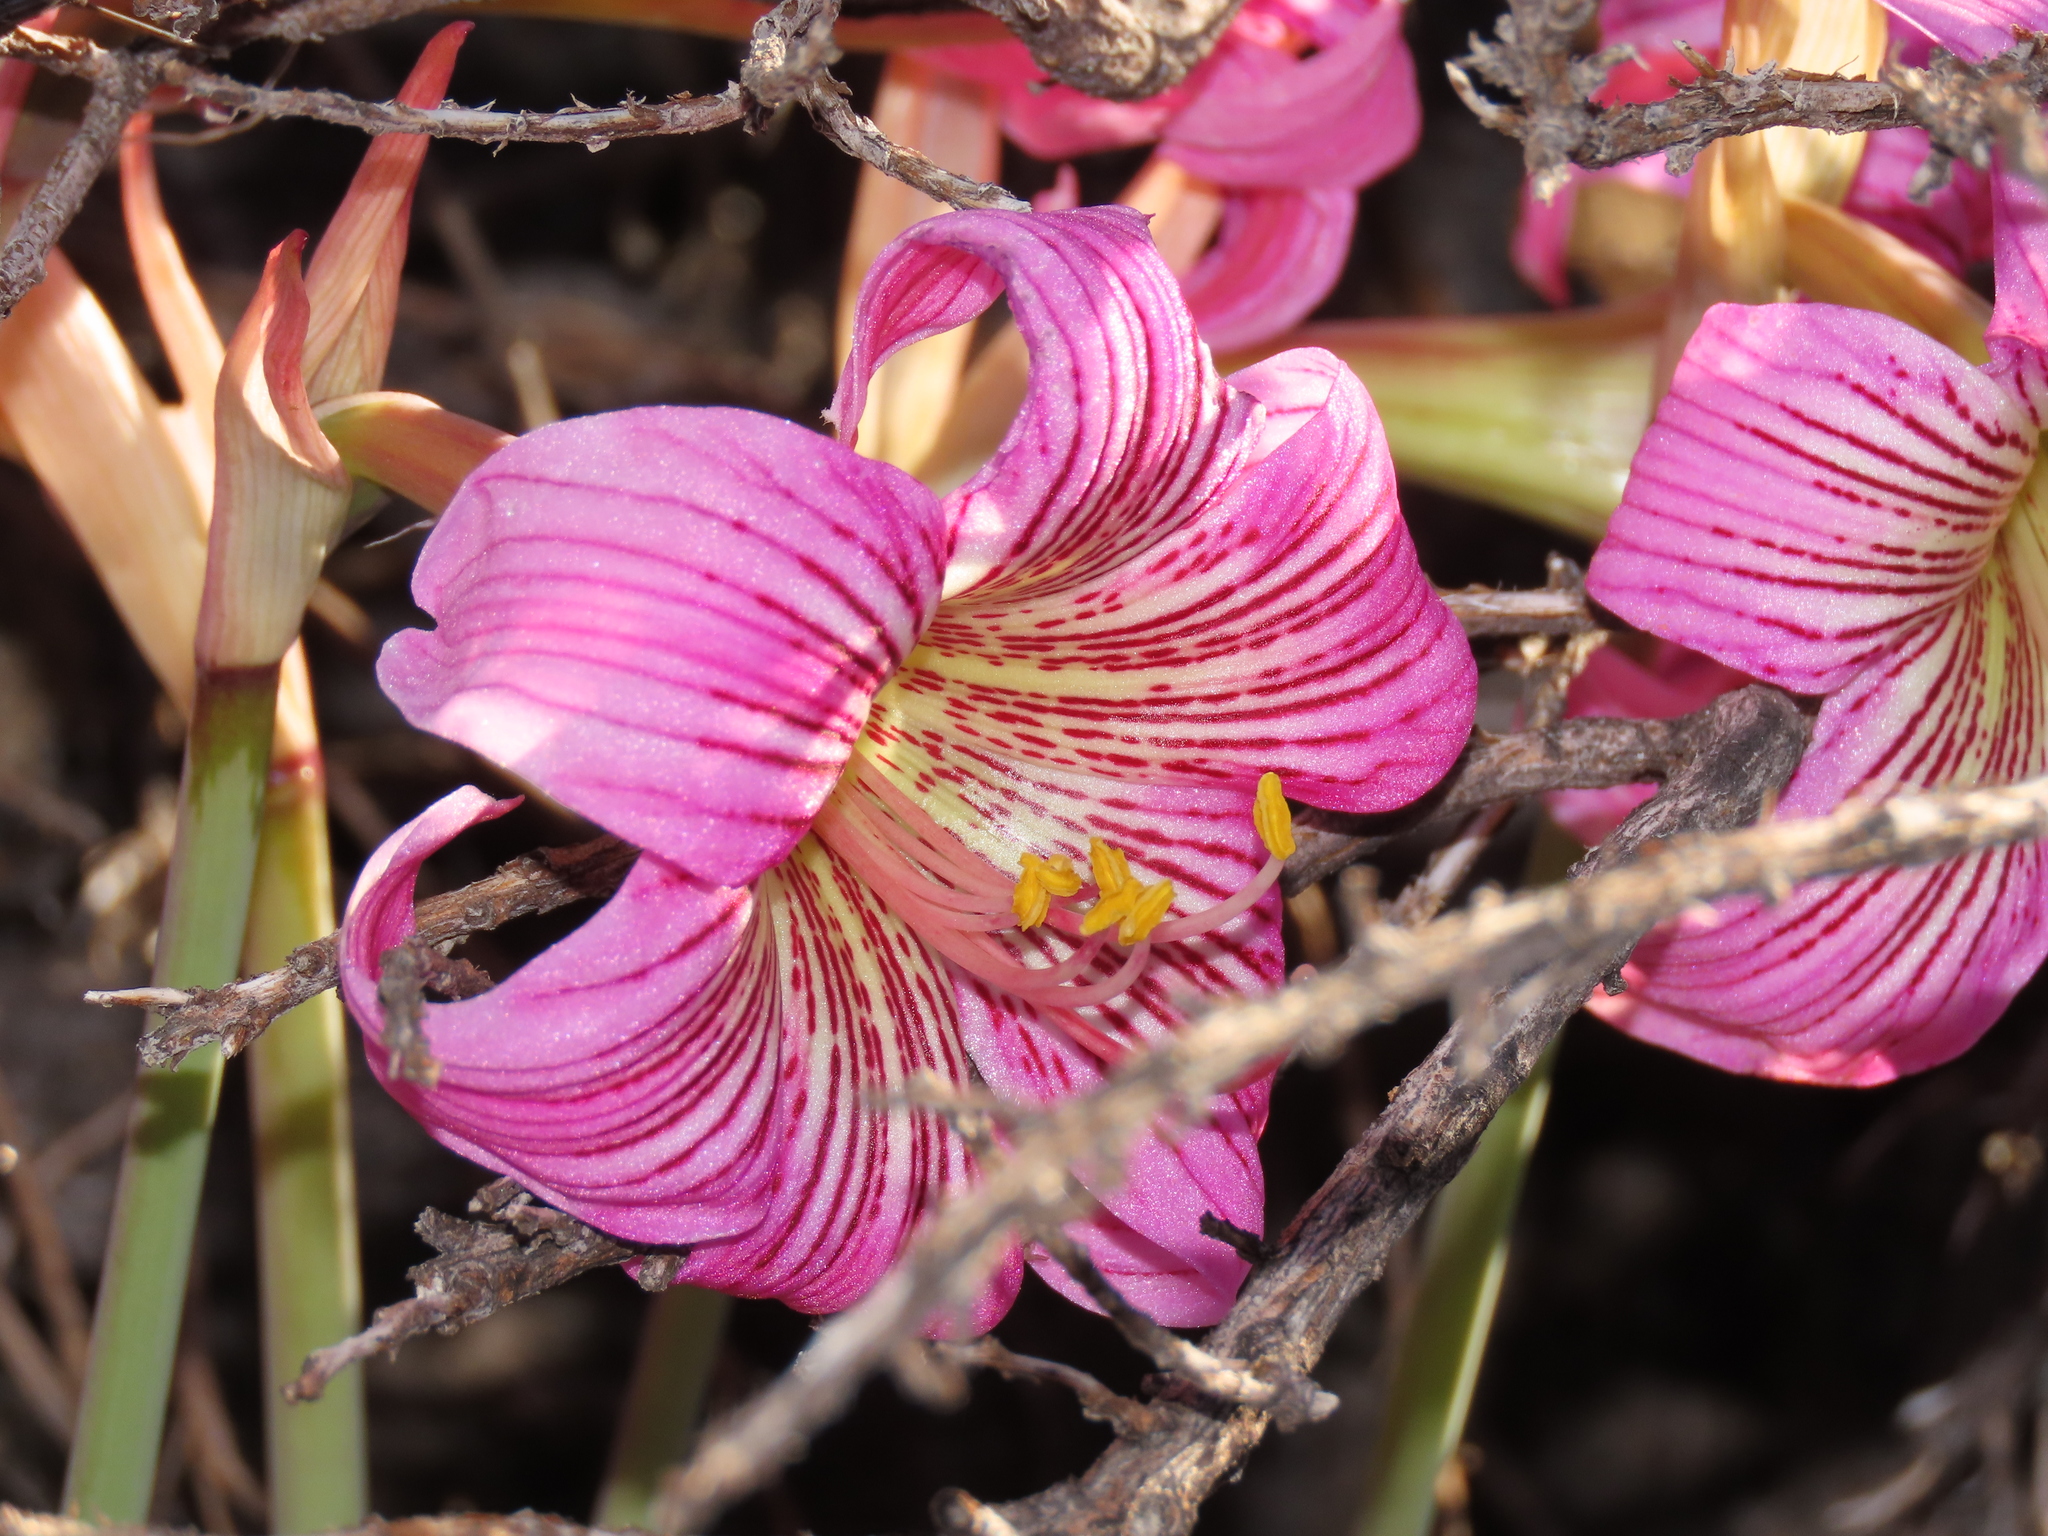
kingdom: Plantae
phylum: Tracheophyta
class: Liliopsida
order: Asparagales
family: Amaryllidaceae
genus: Rhodolirium
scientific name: Rhodolirium montanum
